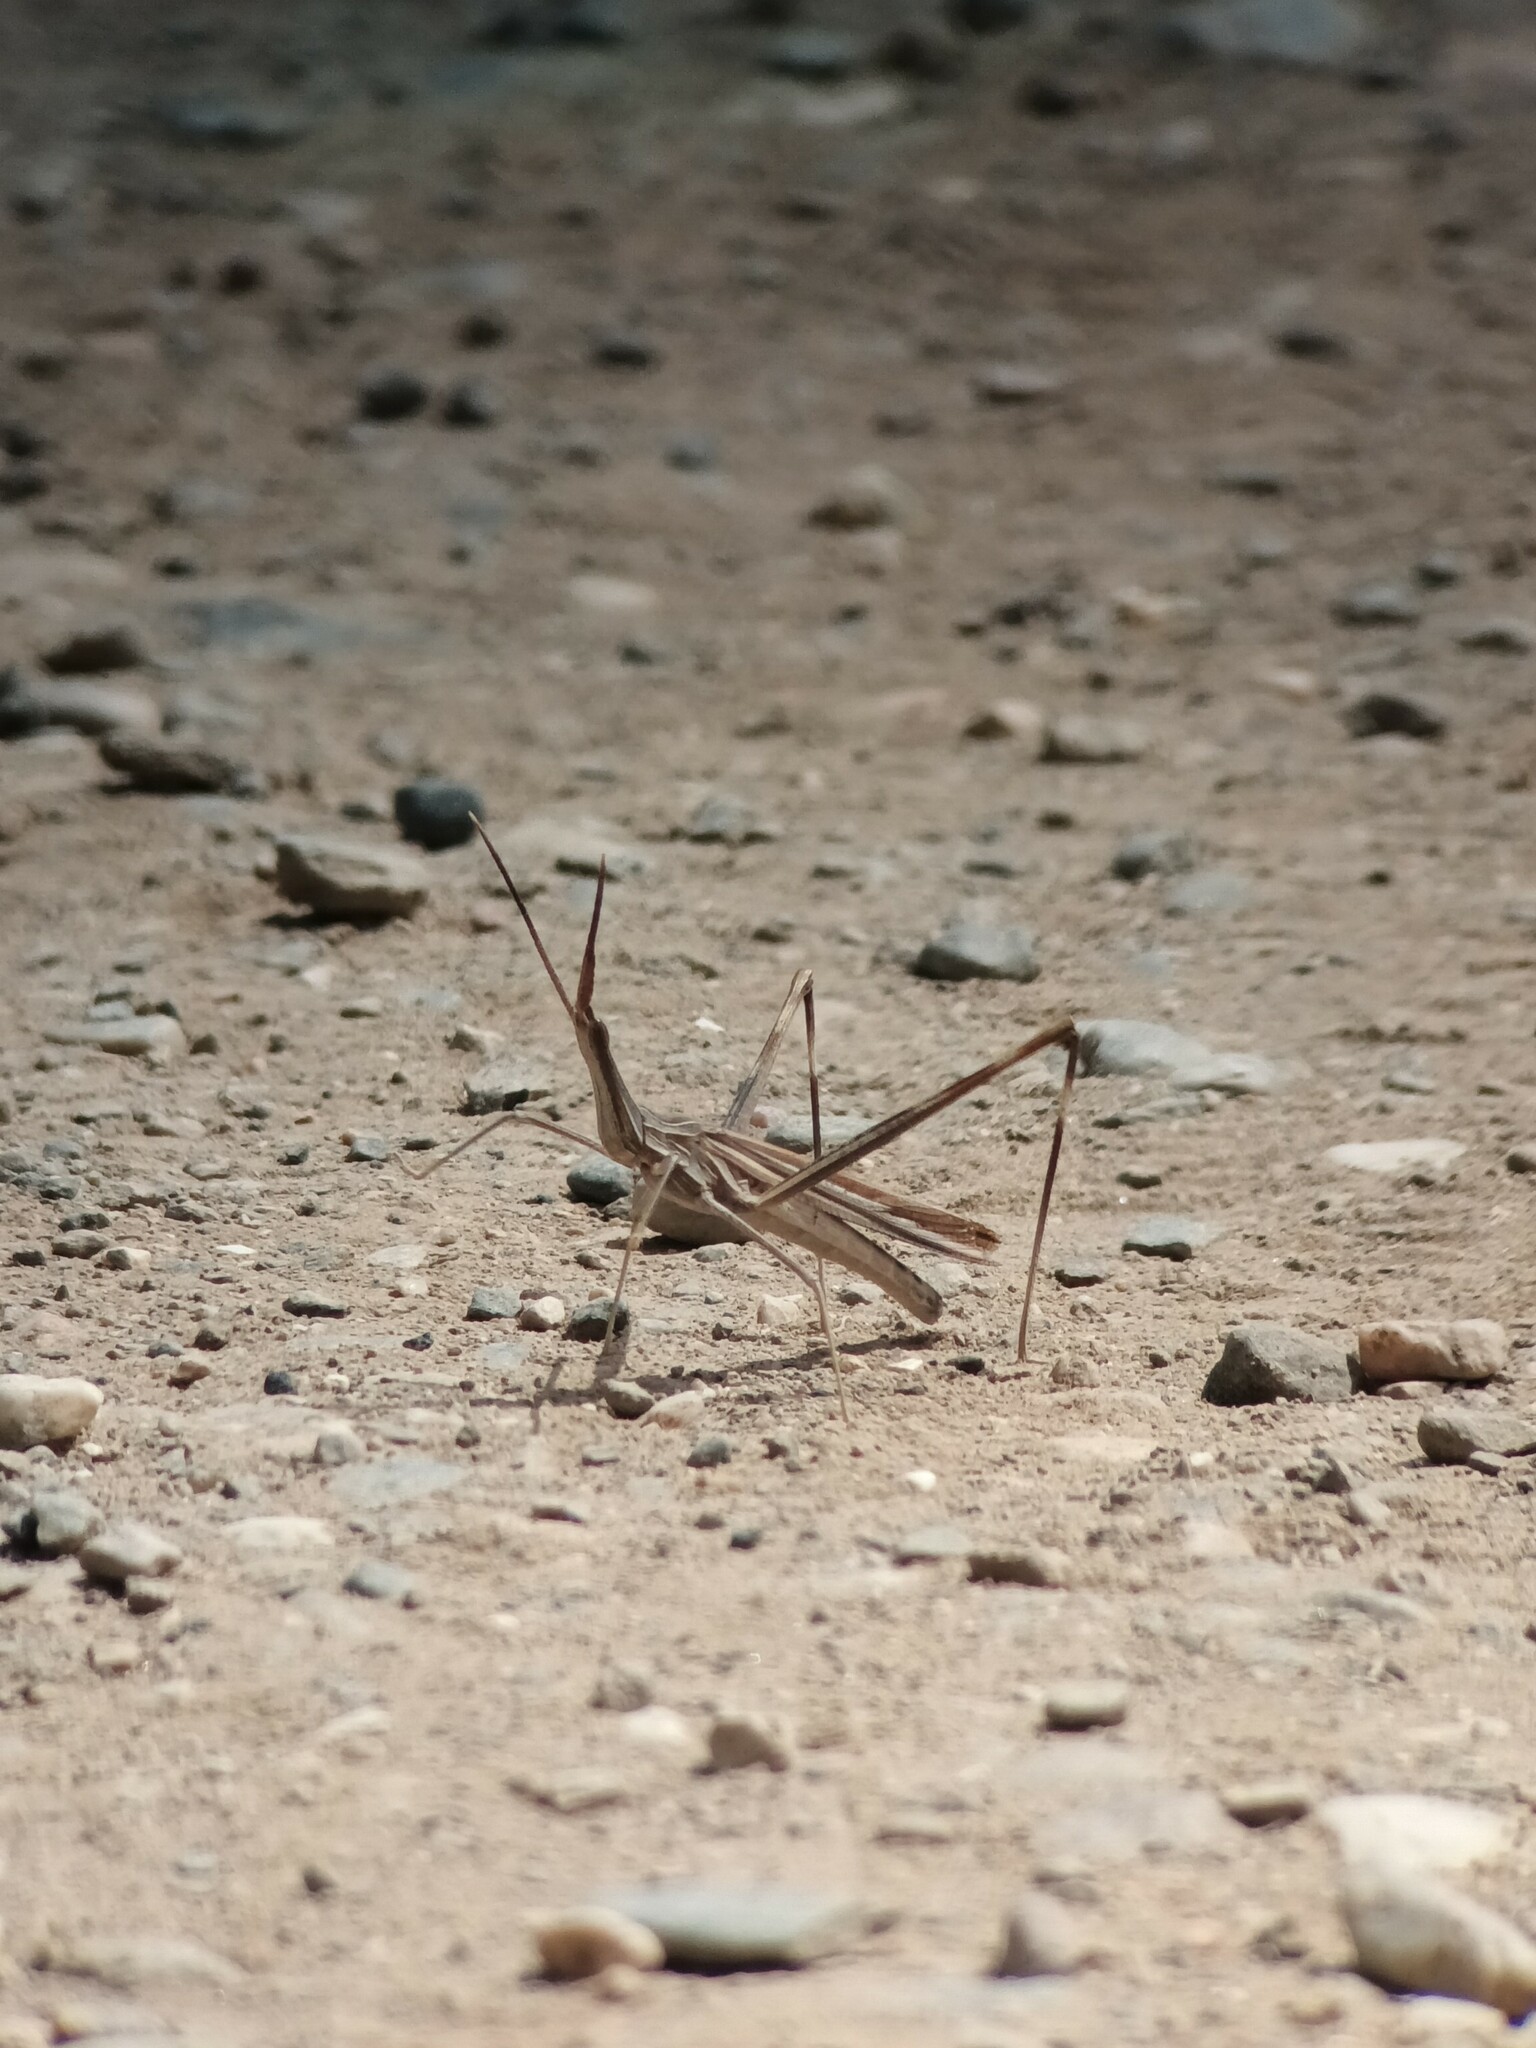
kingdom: Animalia
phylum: Arthropoda
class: Insecta
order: Orthoptera
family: Acrididae
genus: Truxalis
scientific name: Truxalis nasuta
